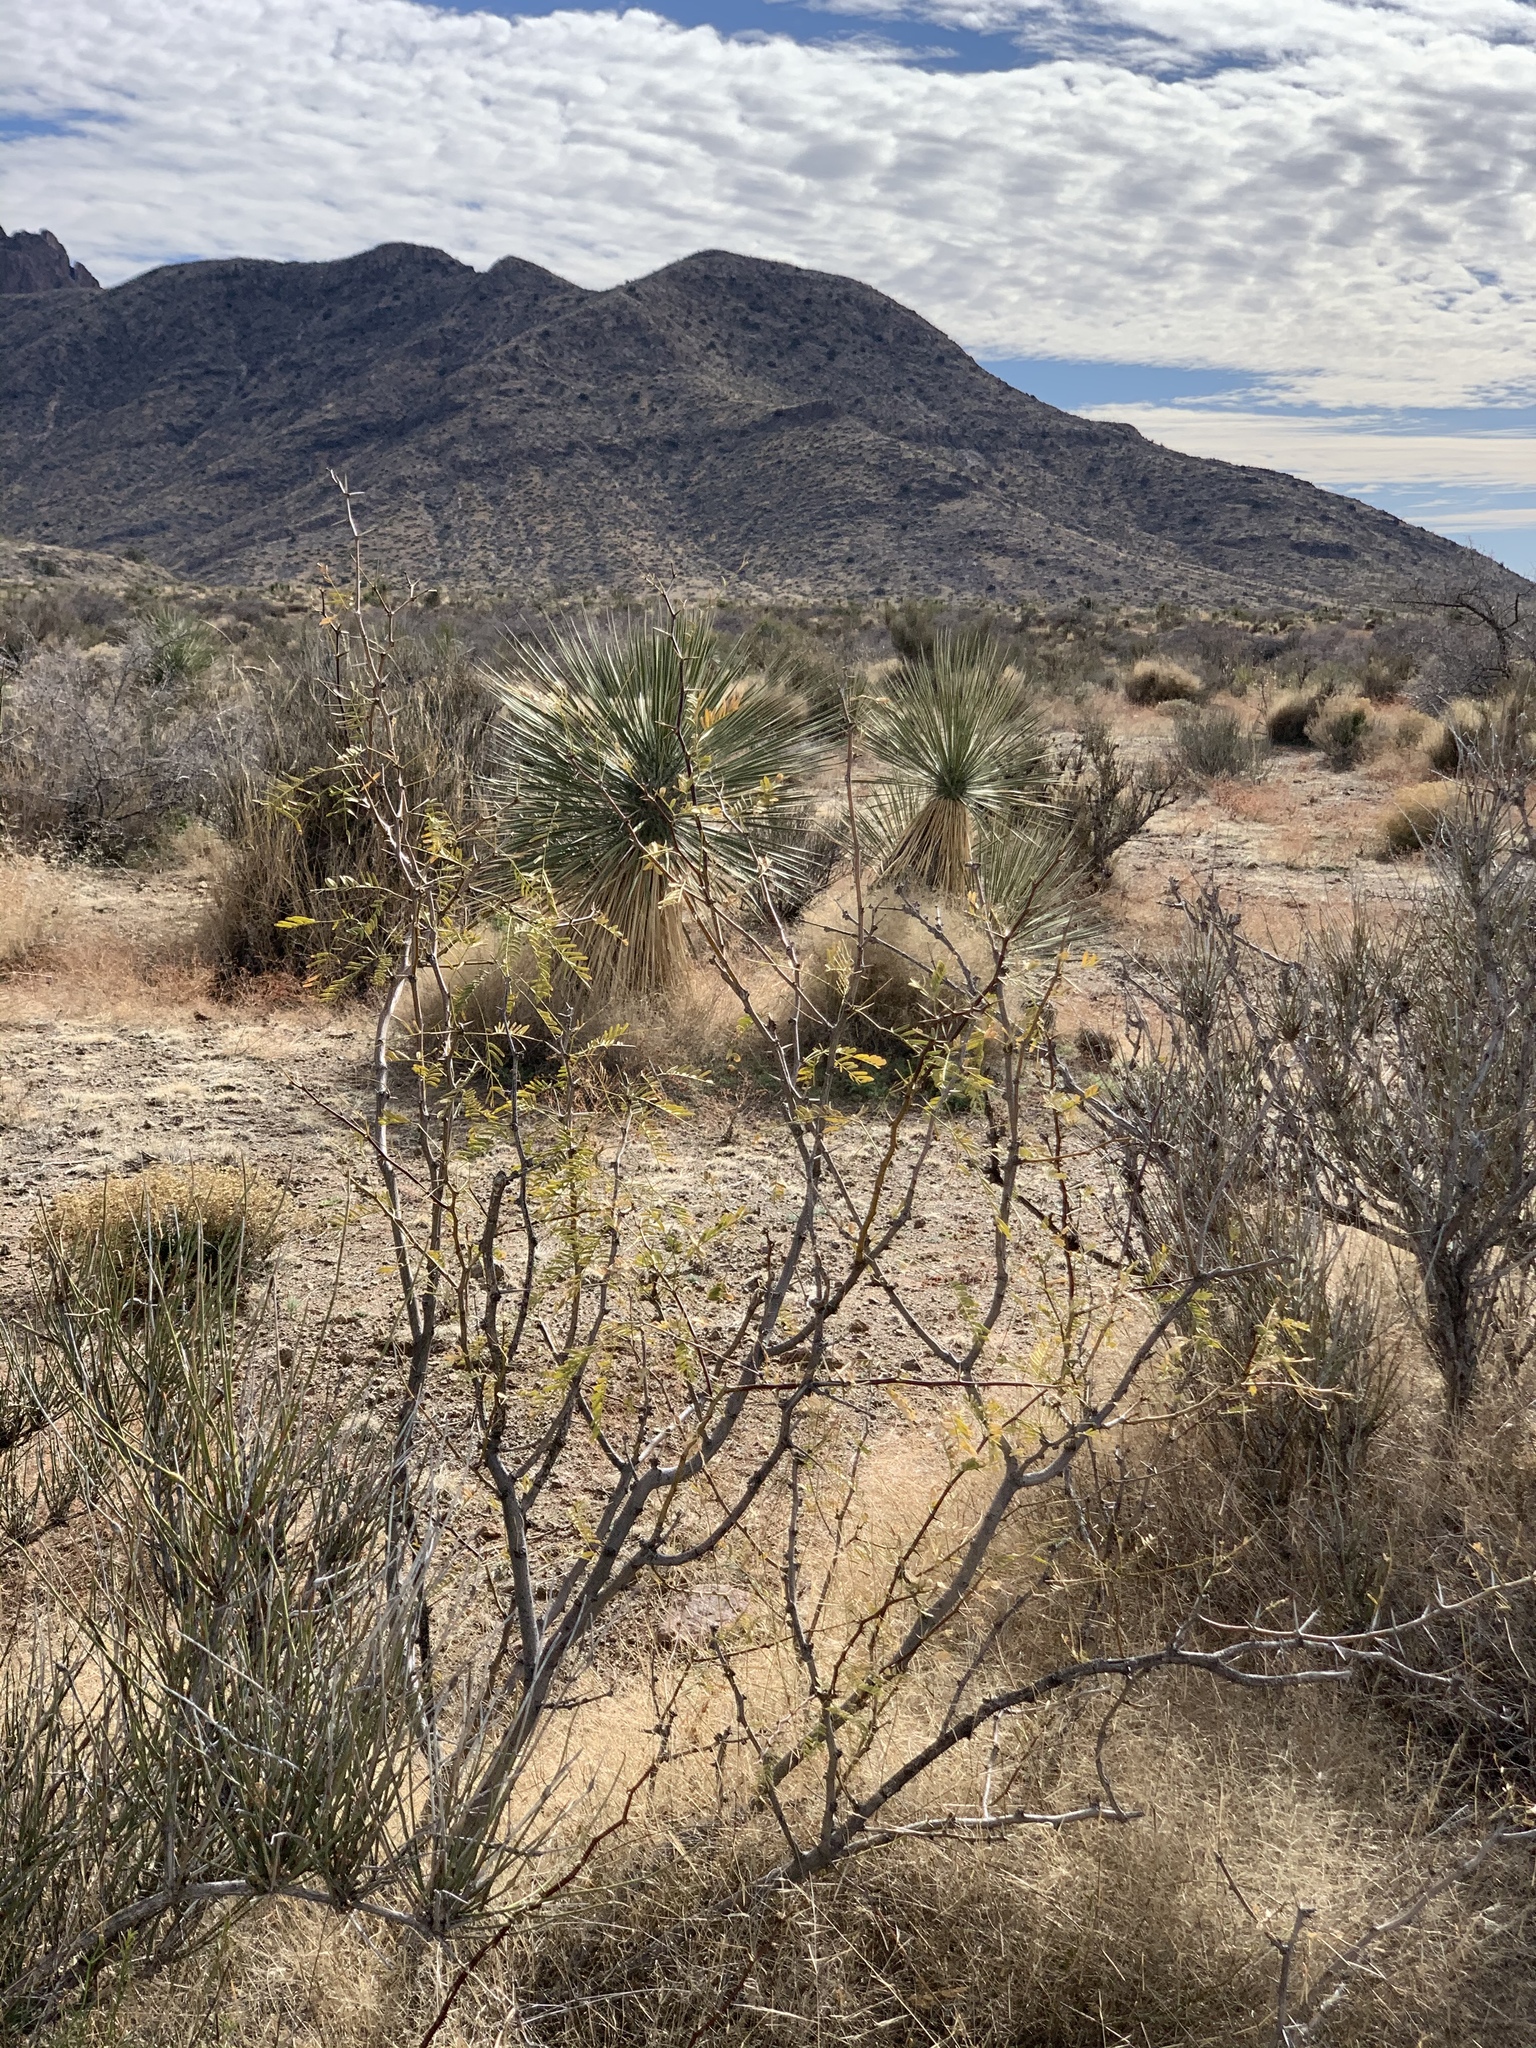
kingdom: Plantae
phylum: Tracheophyta
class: Magnoliopsida
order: Fabales
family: Fabaceae
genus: Prosopis
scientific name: Prosopis glandulosa
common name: Honey mesquite
